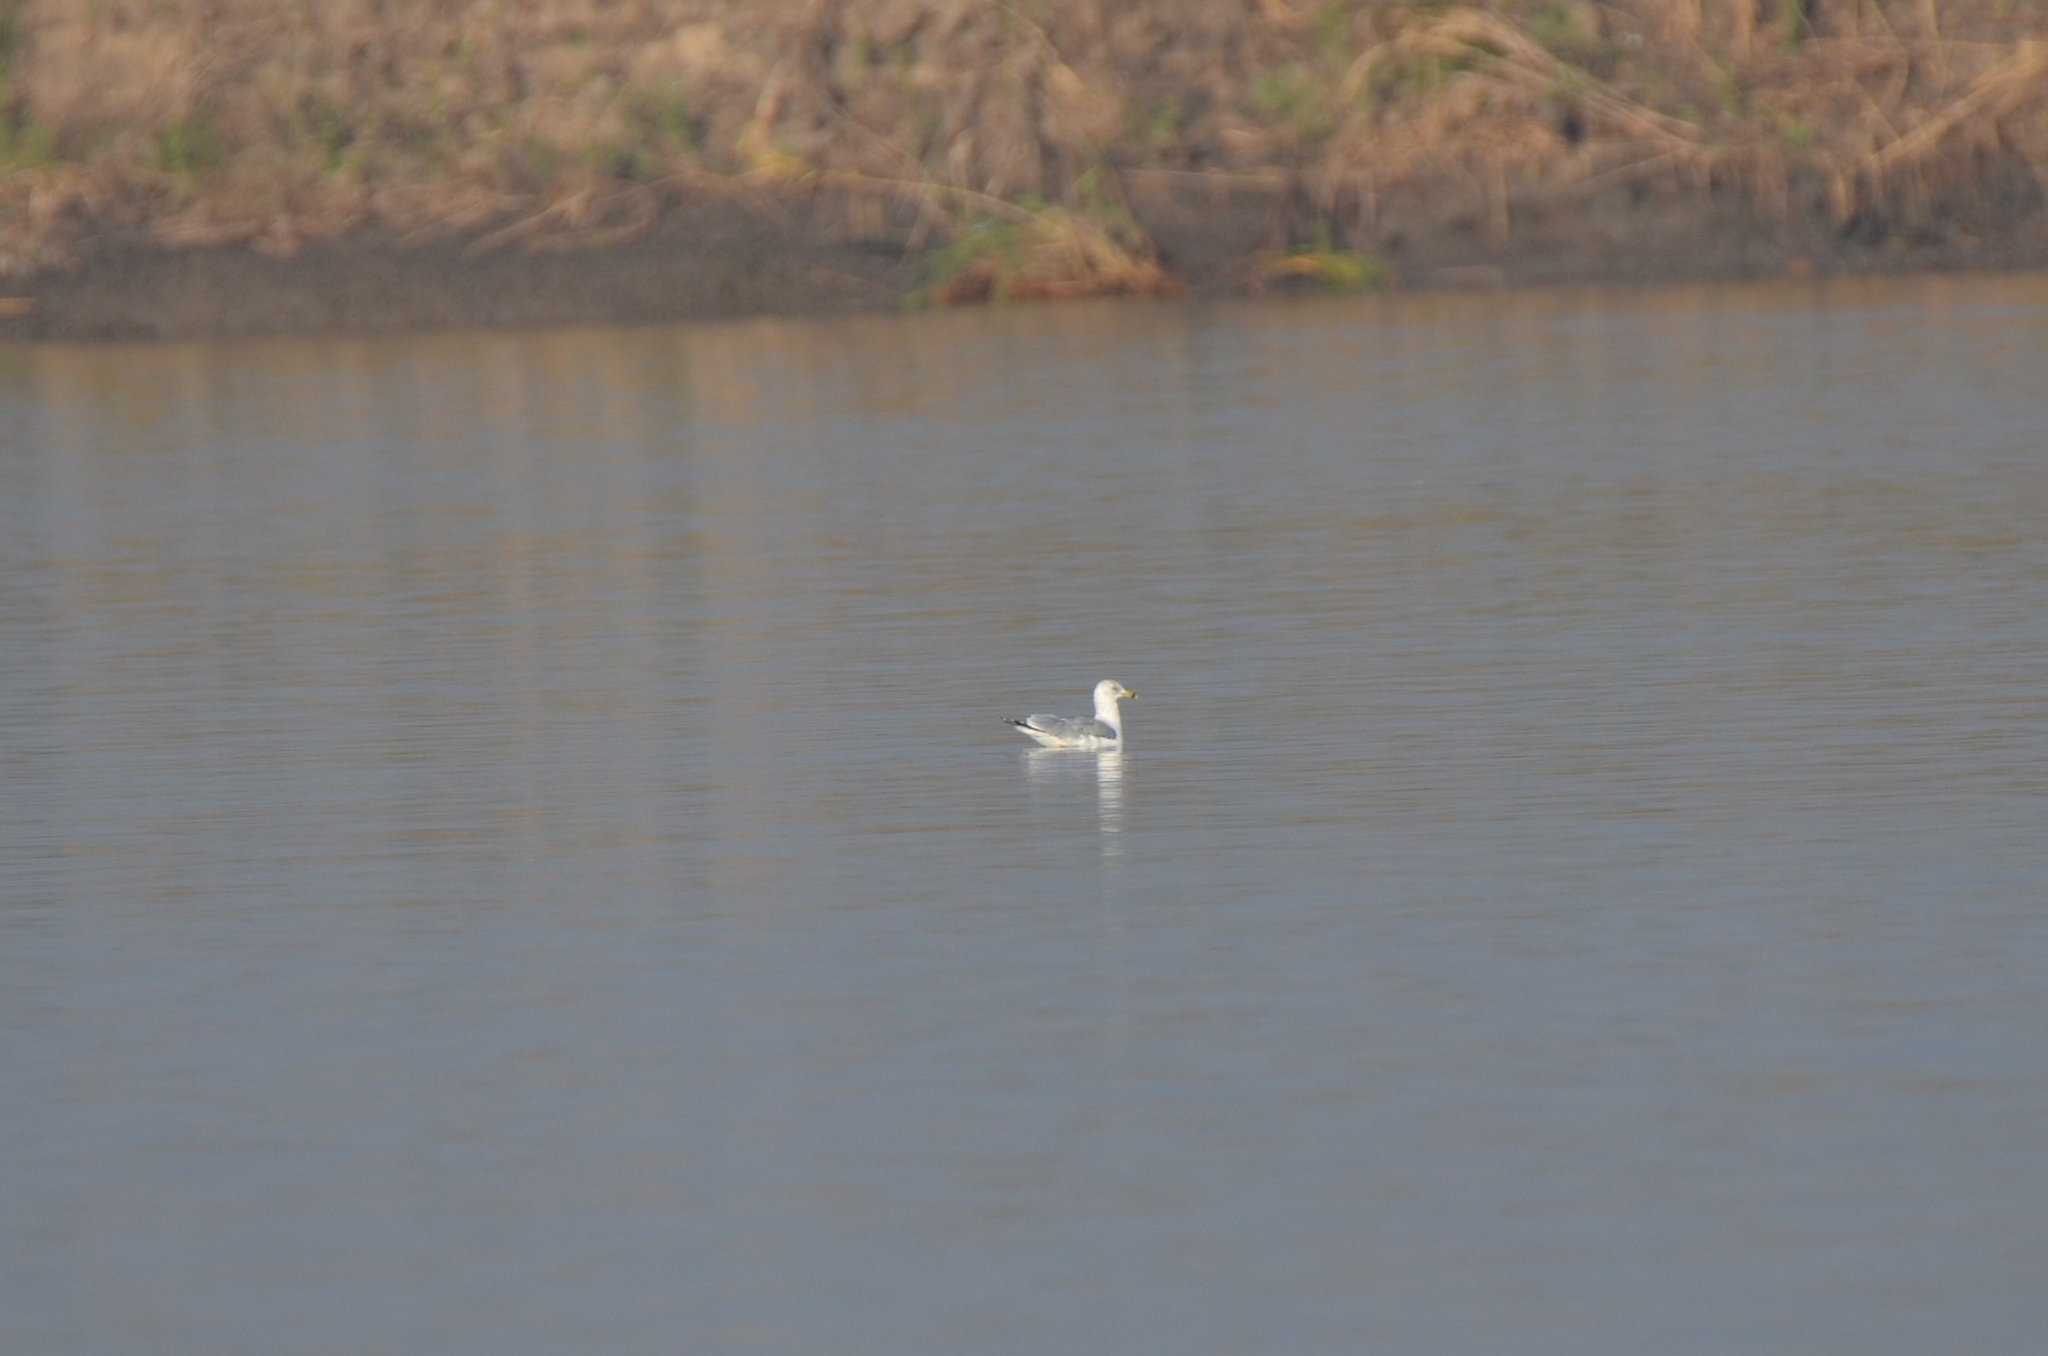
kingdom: Animalia
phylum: Chordata
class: Aves
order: Charadriiformes
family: Laridae
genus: Larus
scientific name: Larus delawarensis
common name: Ring-billed gull
